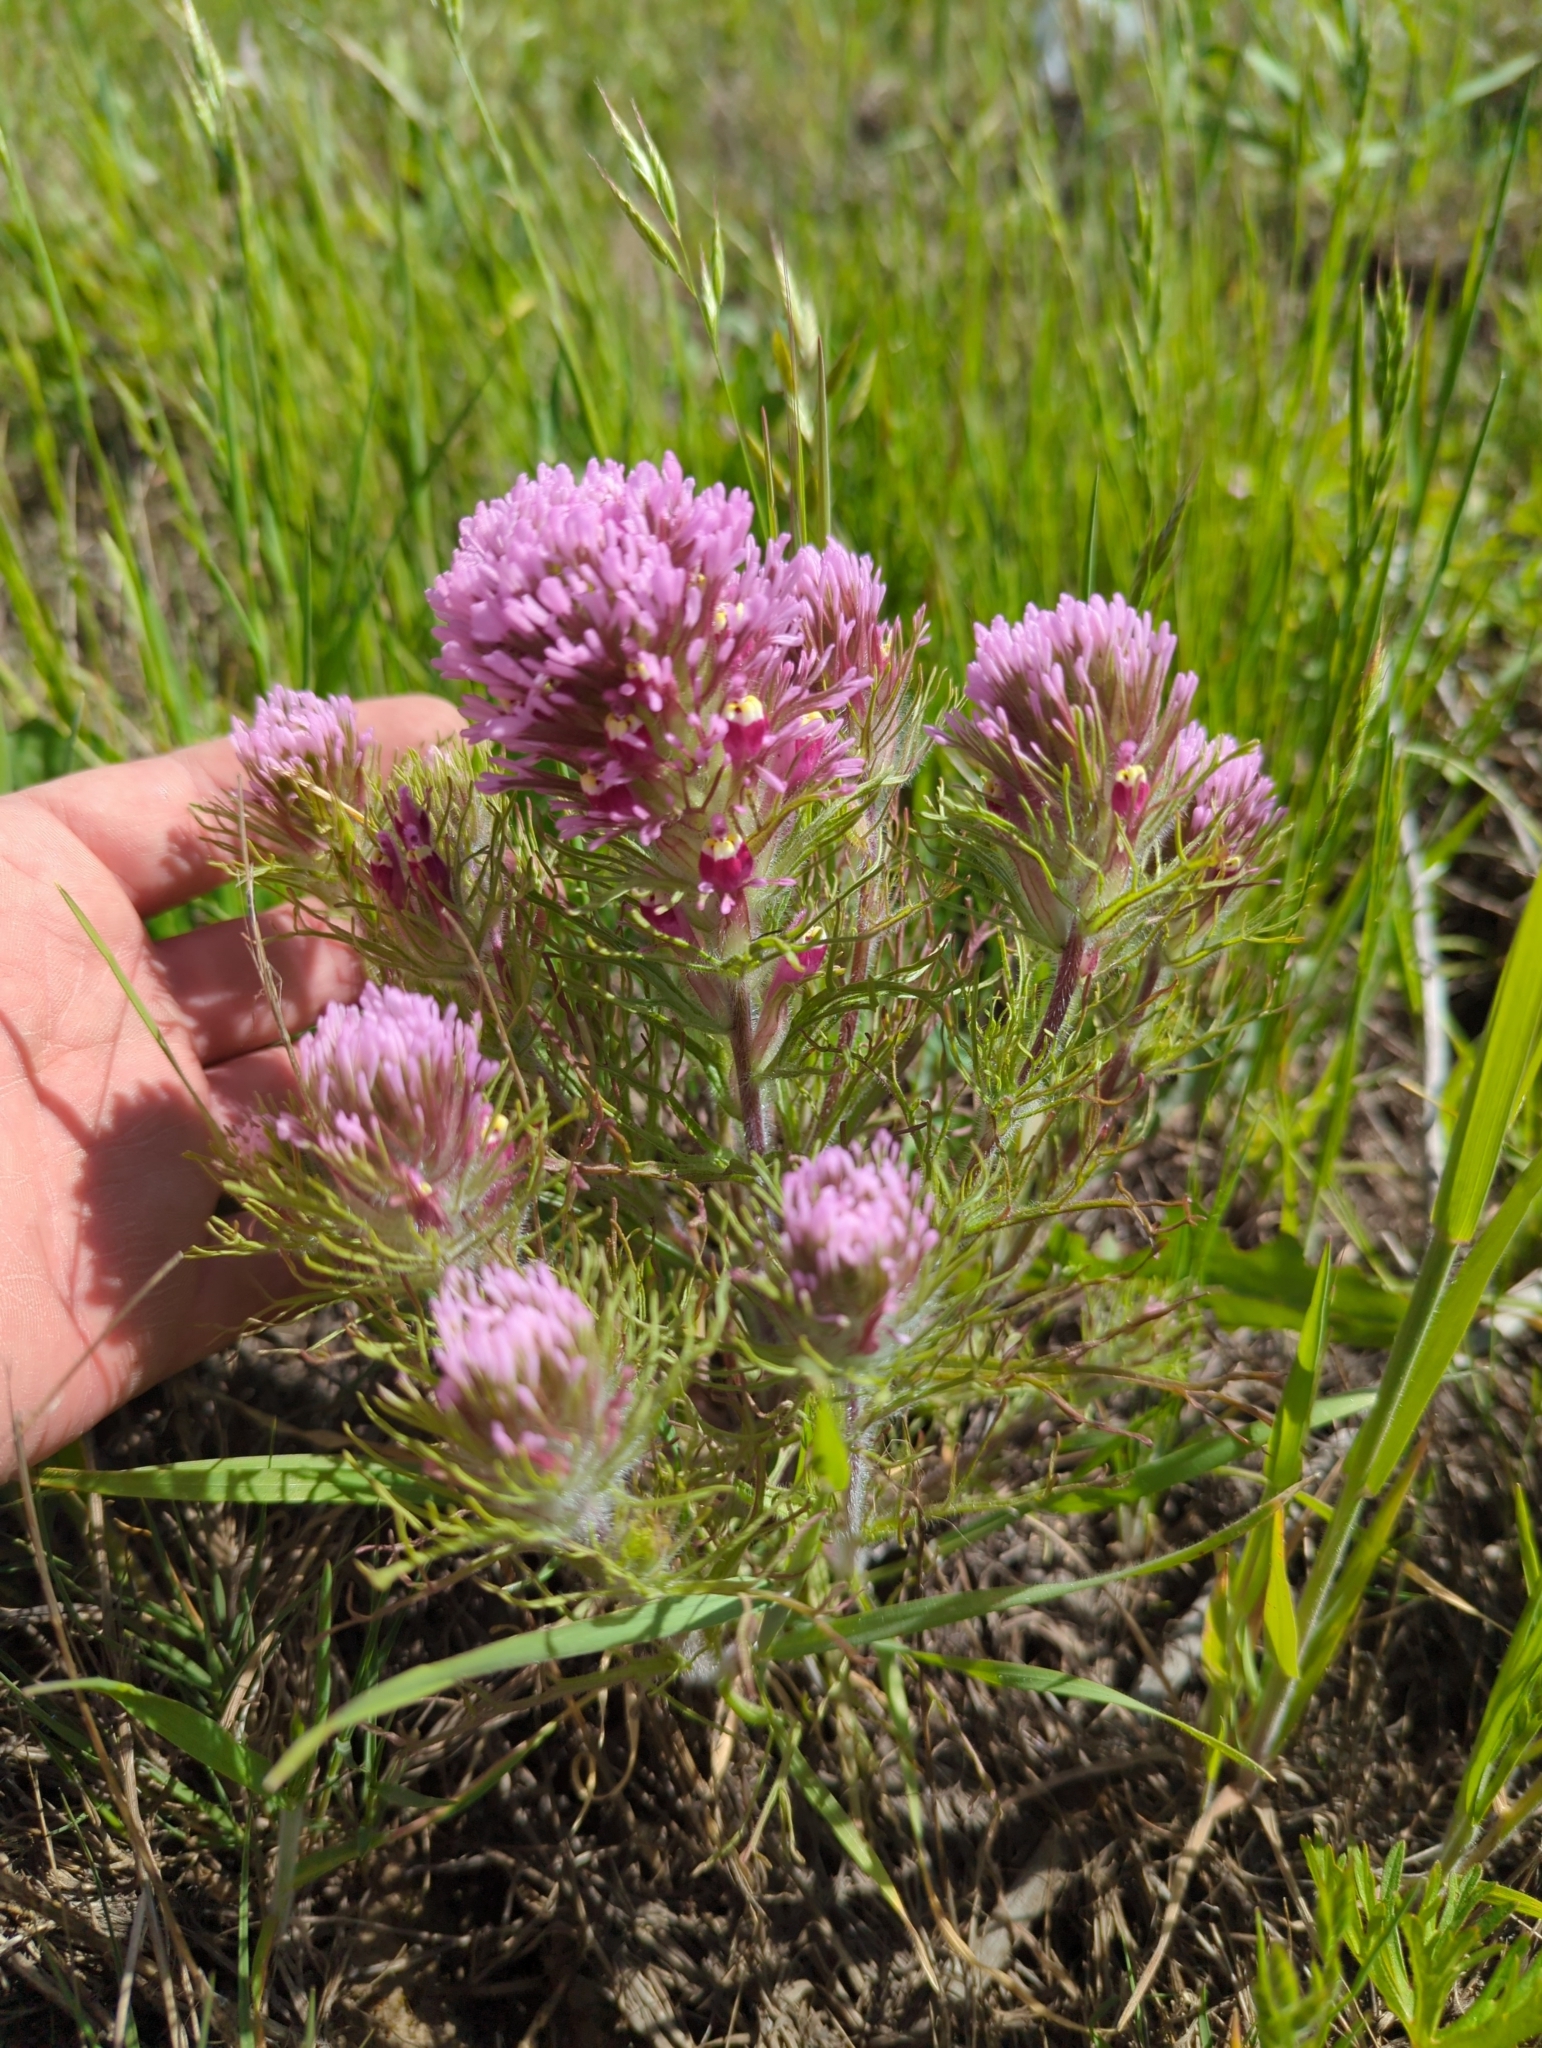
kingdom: Plantae
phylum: Tracheophyta
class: Magnoliopsida
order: Lamiales
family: Orobanchaceae
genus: Castilleja
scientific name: Castilleja exserta
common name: Purple owl-clover
